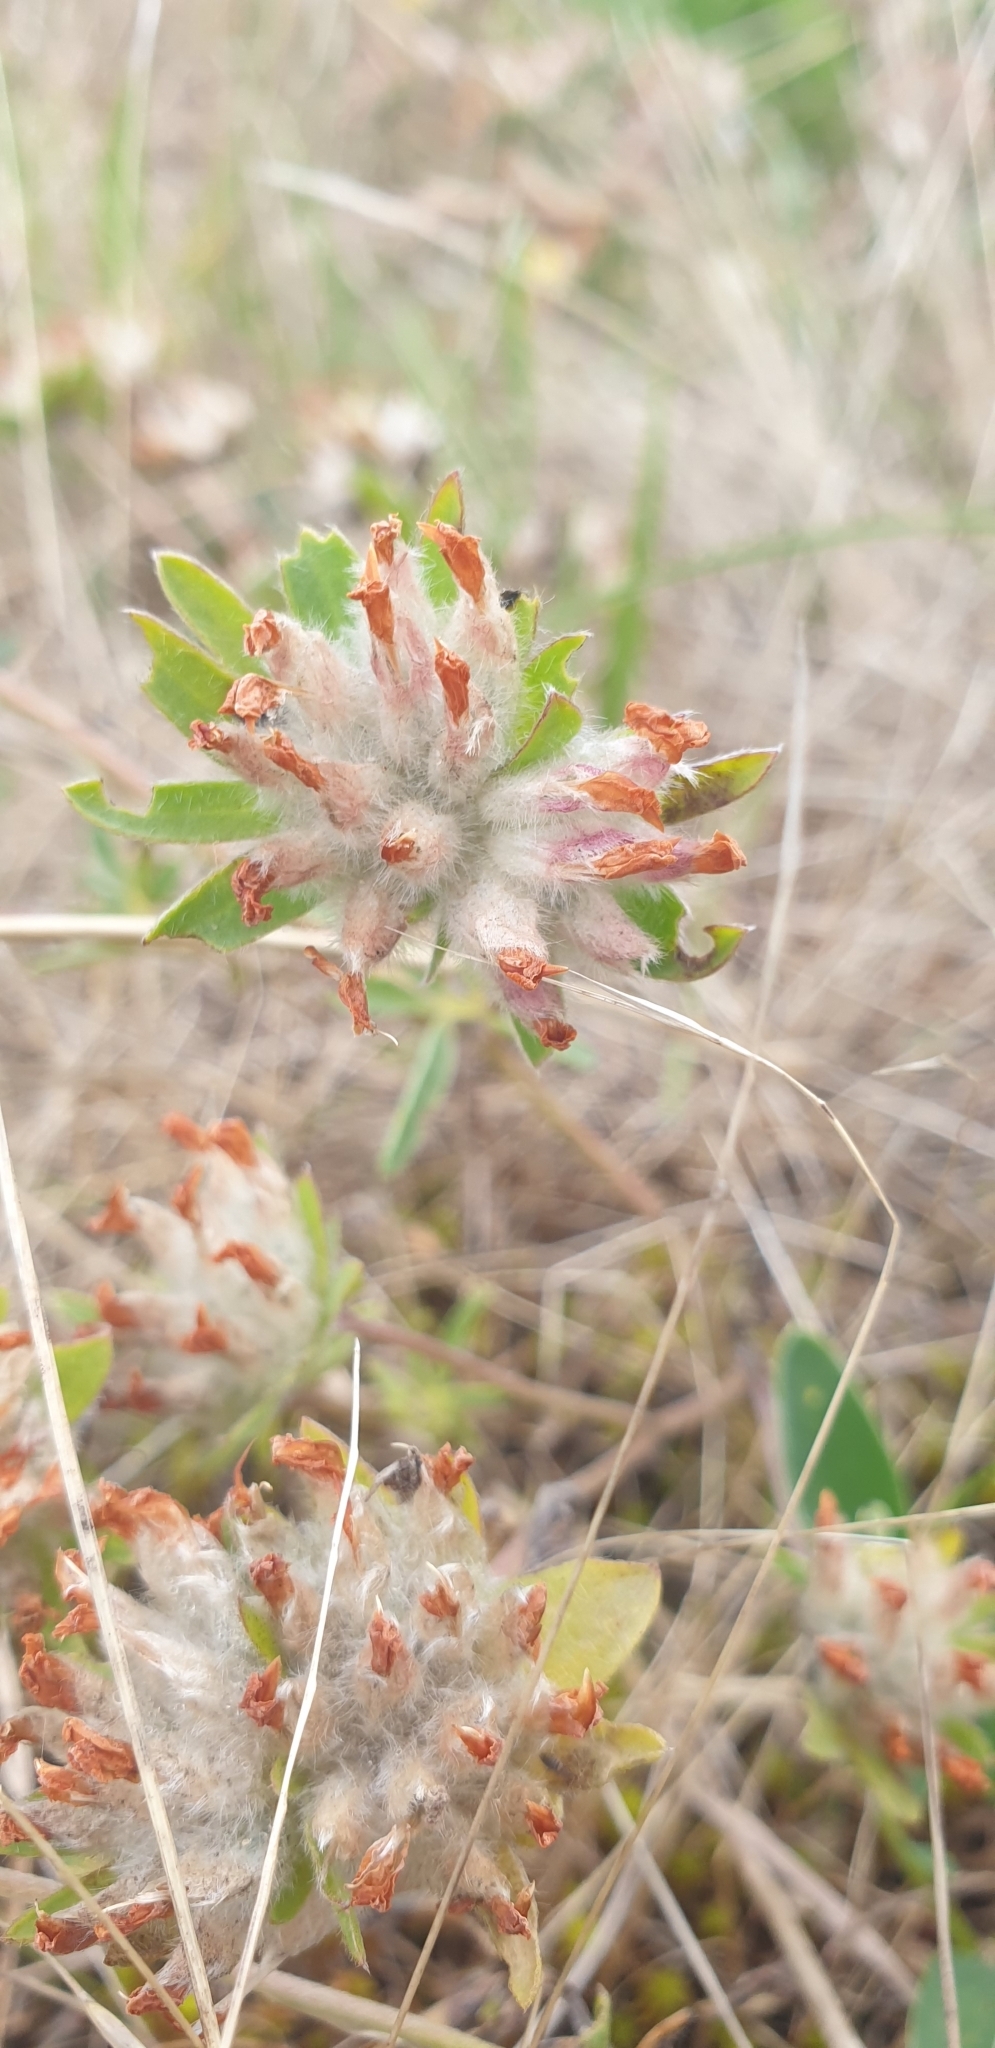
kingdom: Plantae
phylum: Tracheophyta
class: Magnoliopsida
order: Fabales
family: Fabaceae
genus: Anthyllis
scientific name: Anthyllis vulneraria
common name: Kidney vetch
